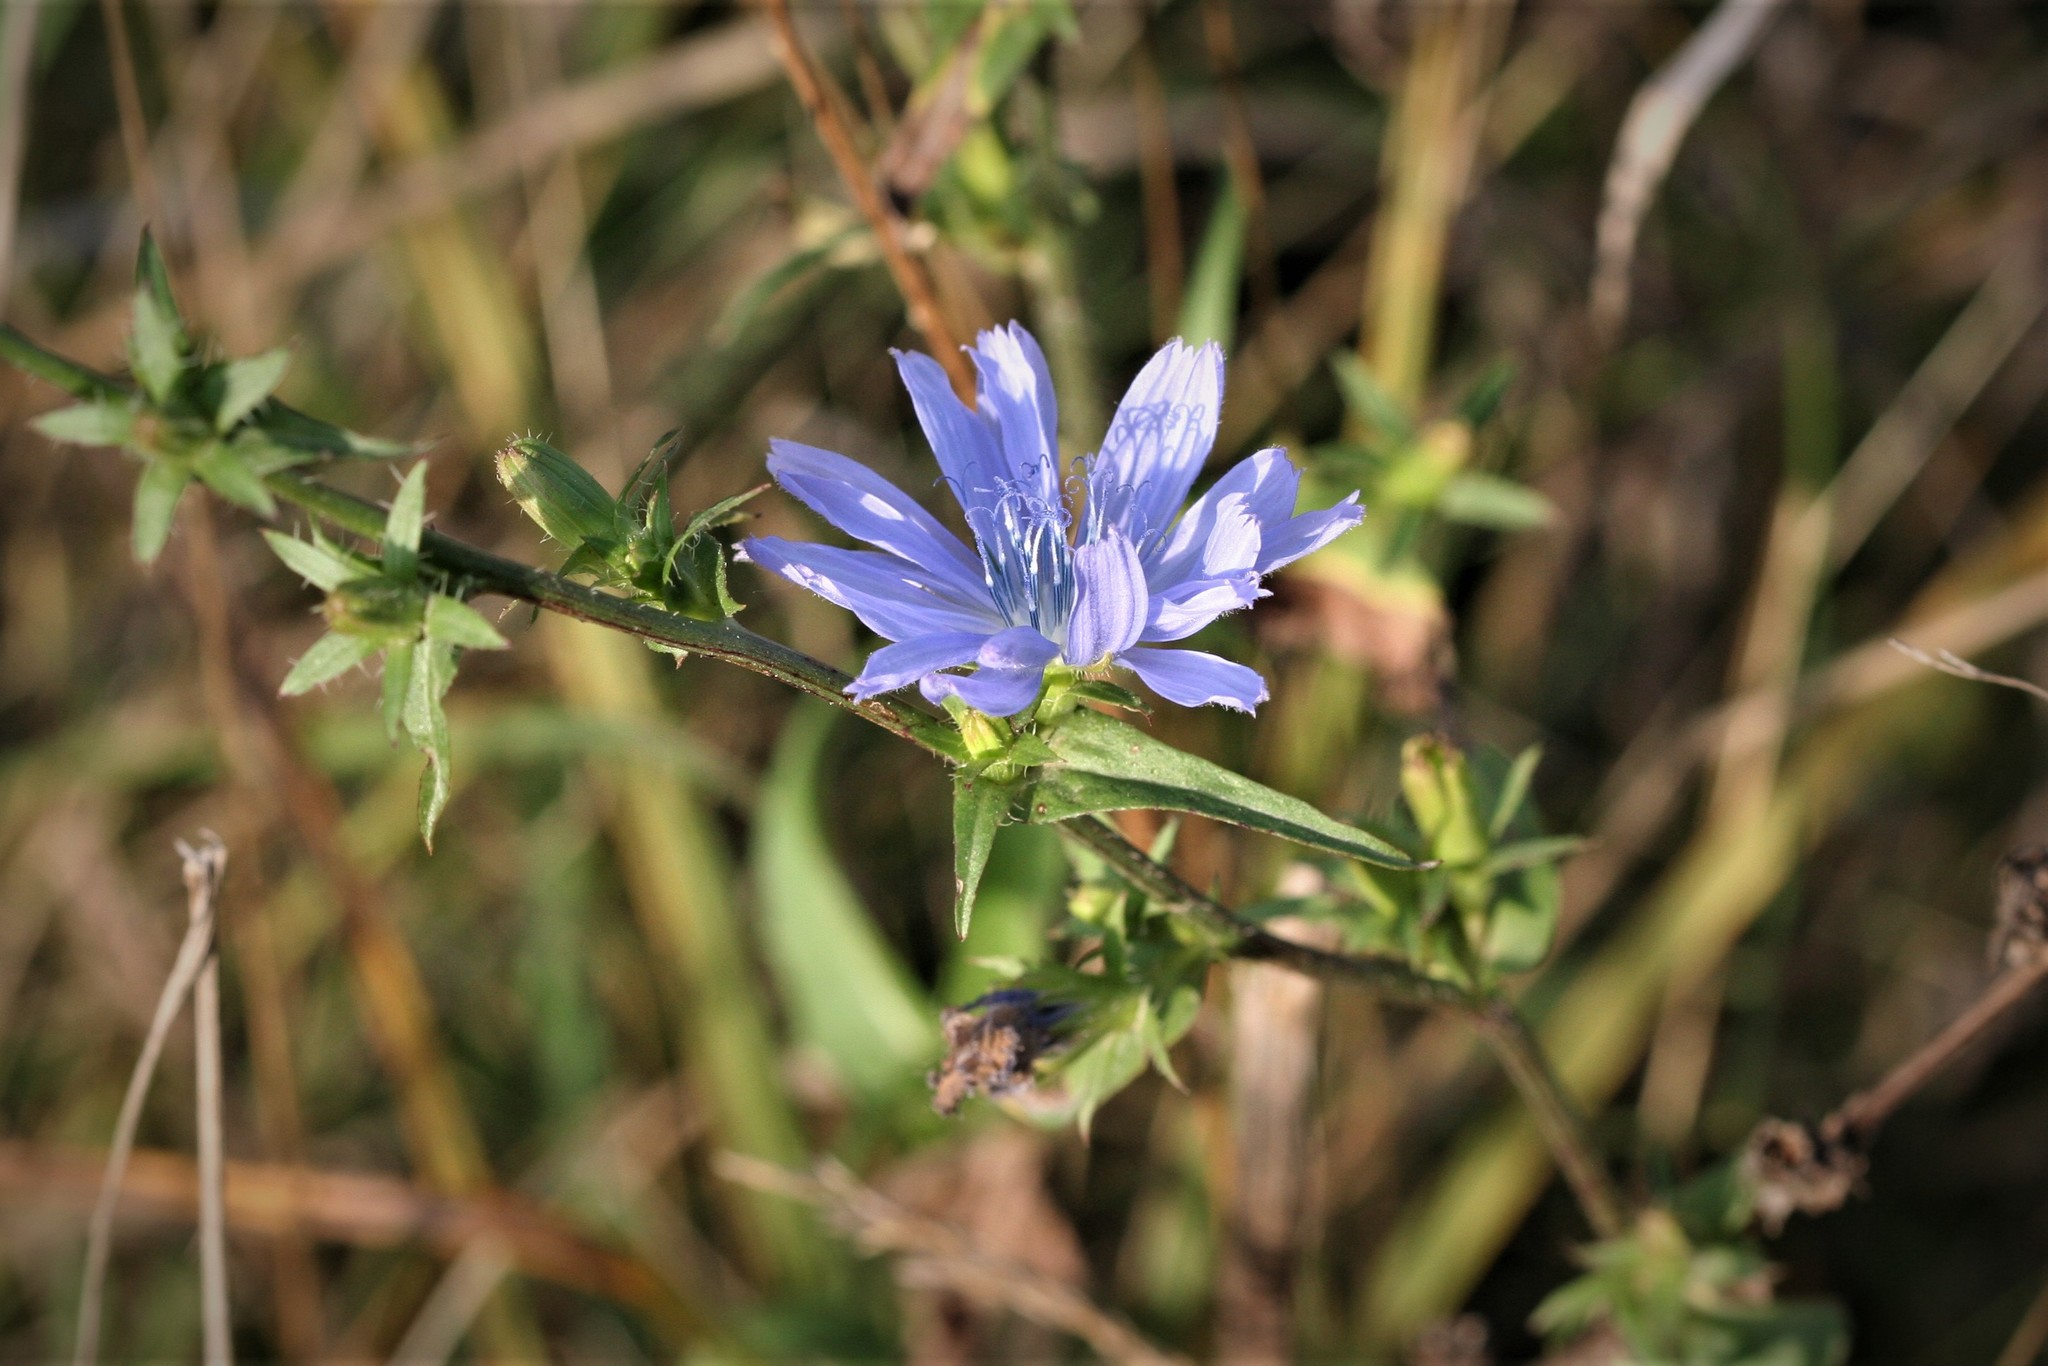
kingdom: Plantae
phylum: Tracheophyta
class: Magnoliopsida
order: Asterales
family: Asteraceae
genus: Cichorium
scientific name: Cichorium intybus
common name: Chicory
